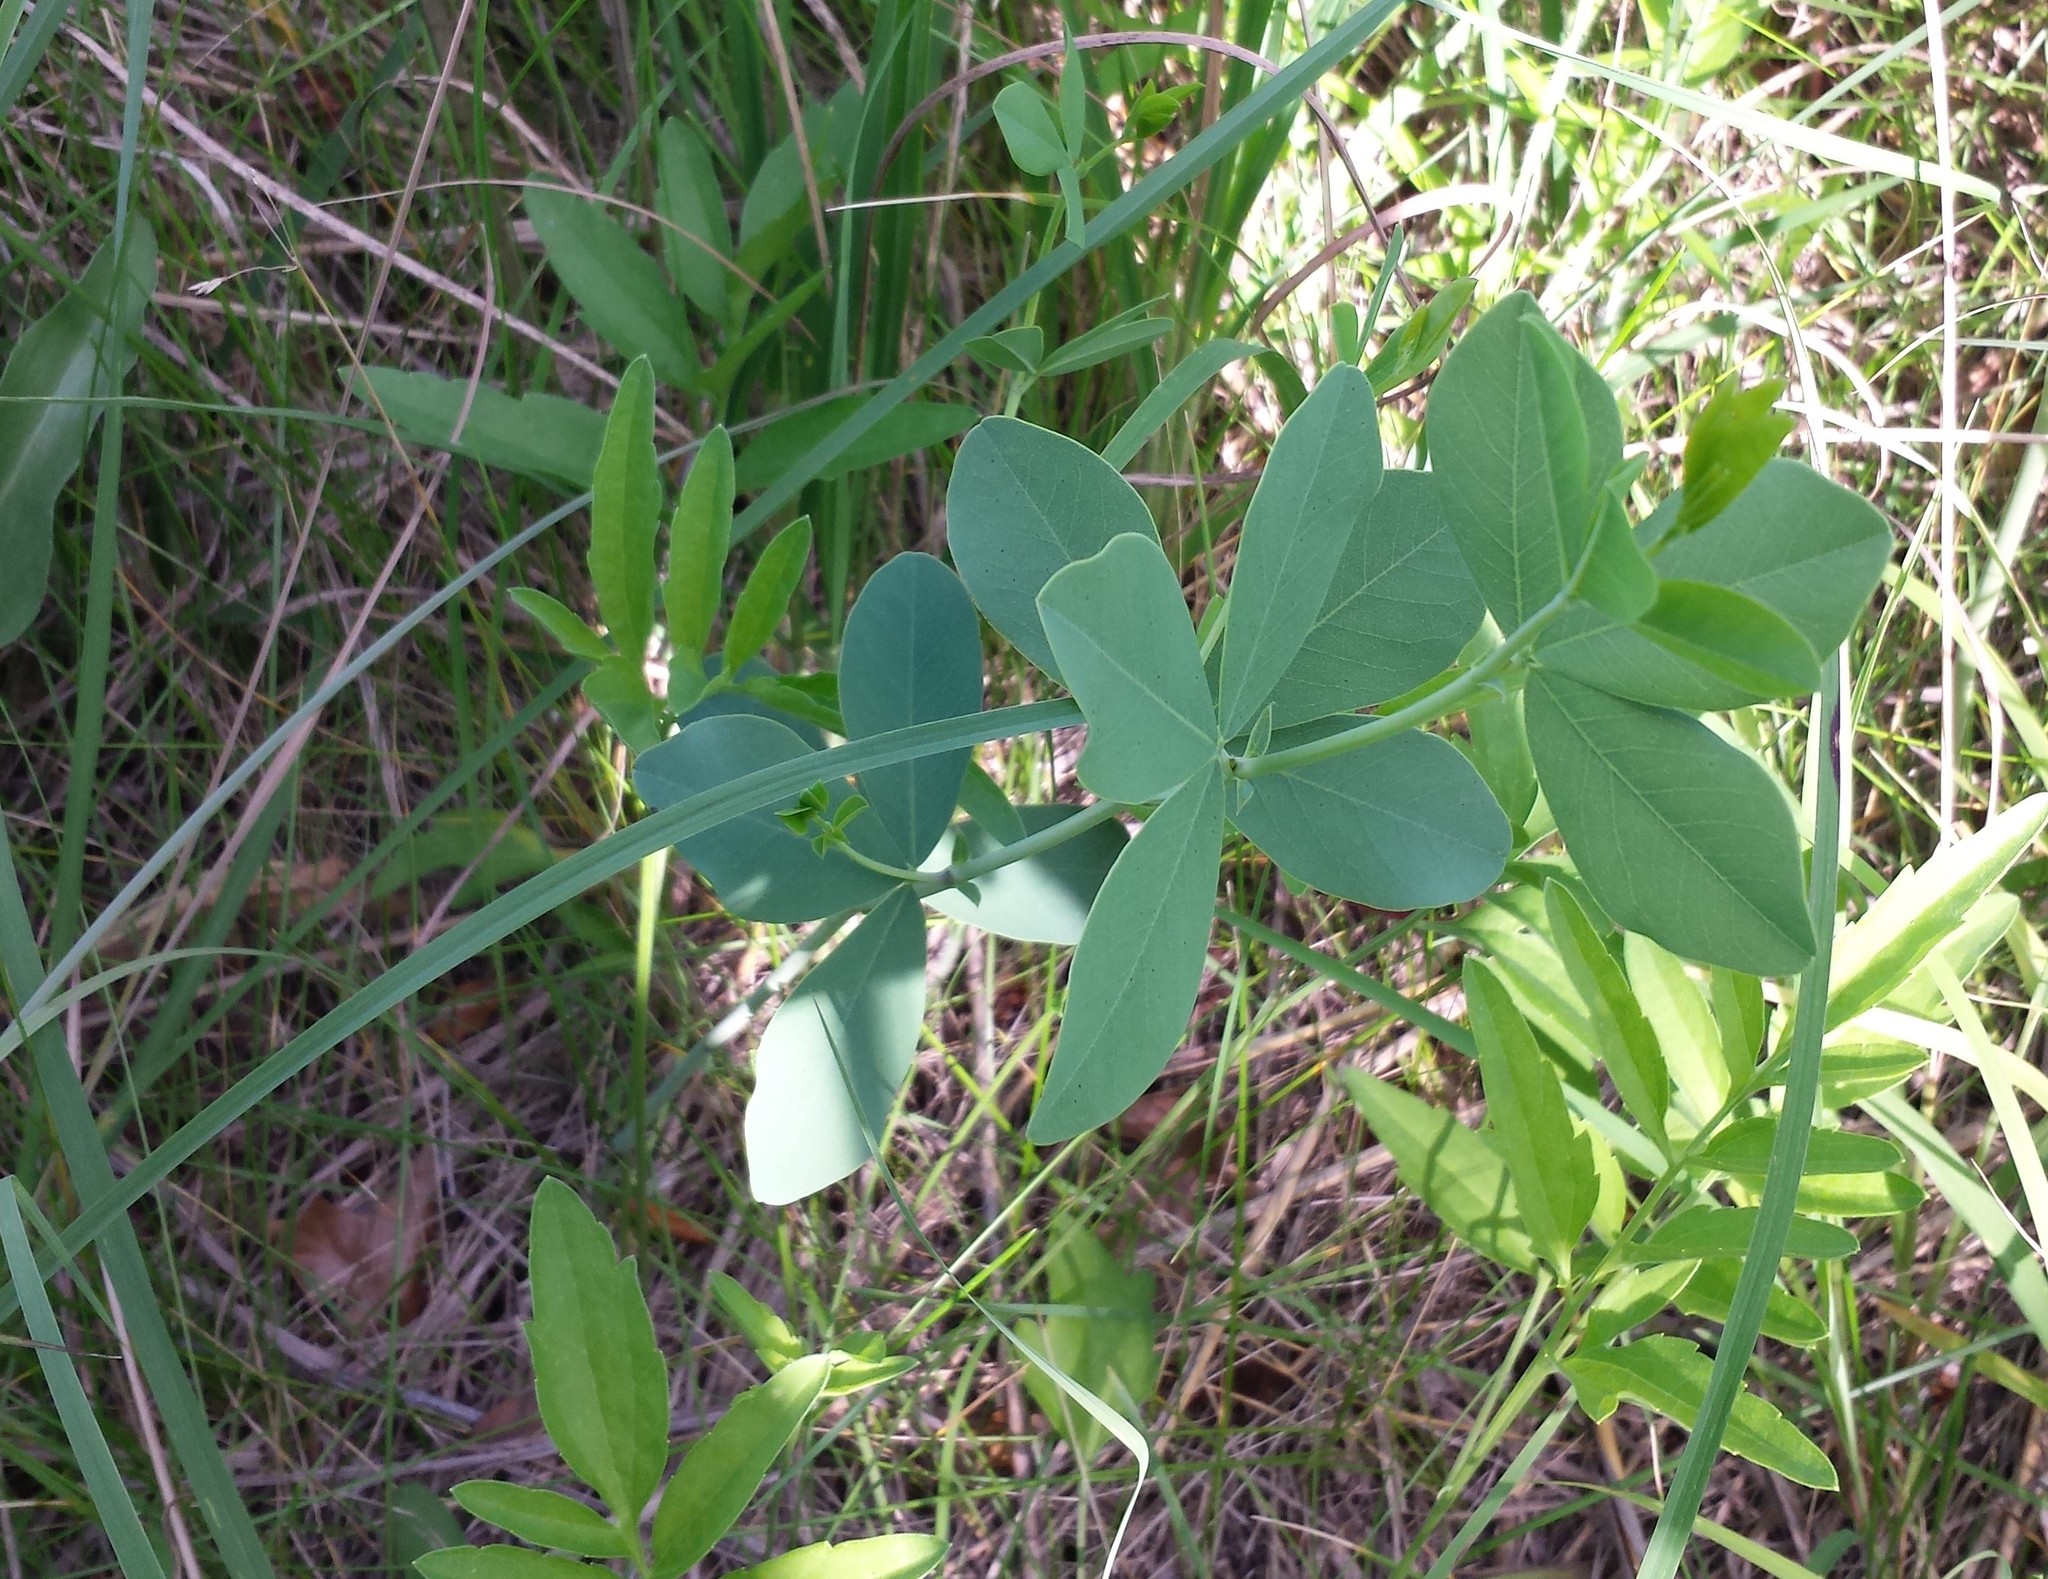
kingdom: Plantae
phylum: Tracheophyta
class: Magnoliopsida
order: Fabales
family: Fabaceae
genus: Baptisia
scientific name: Baptisia alba
